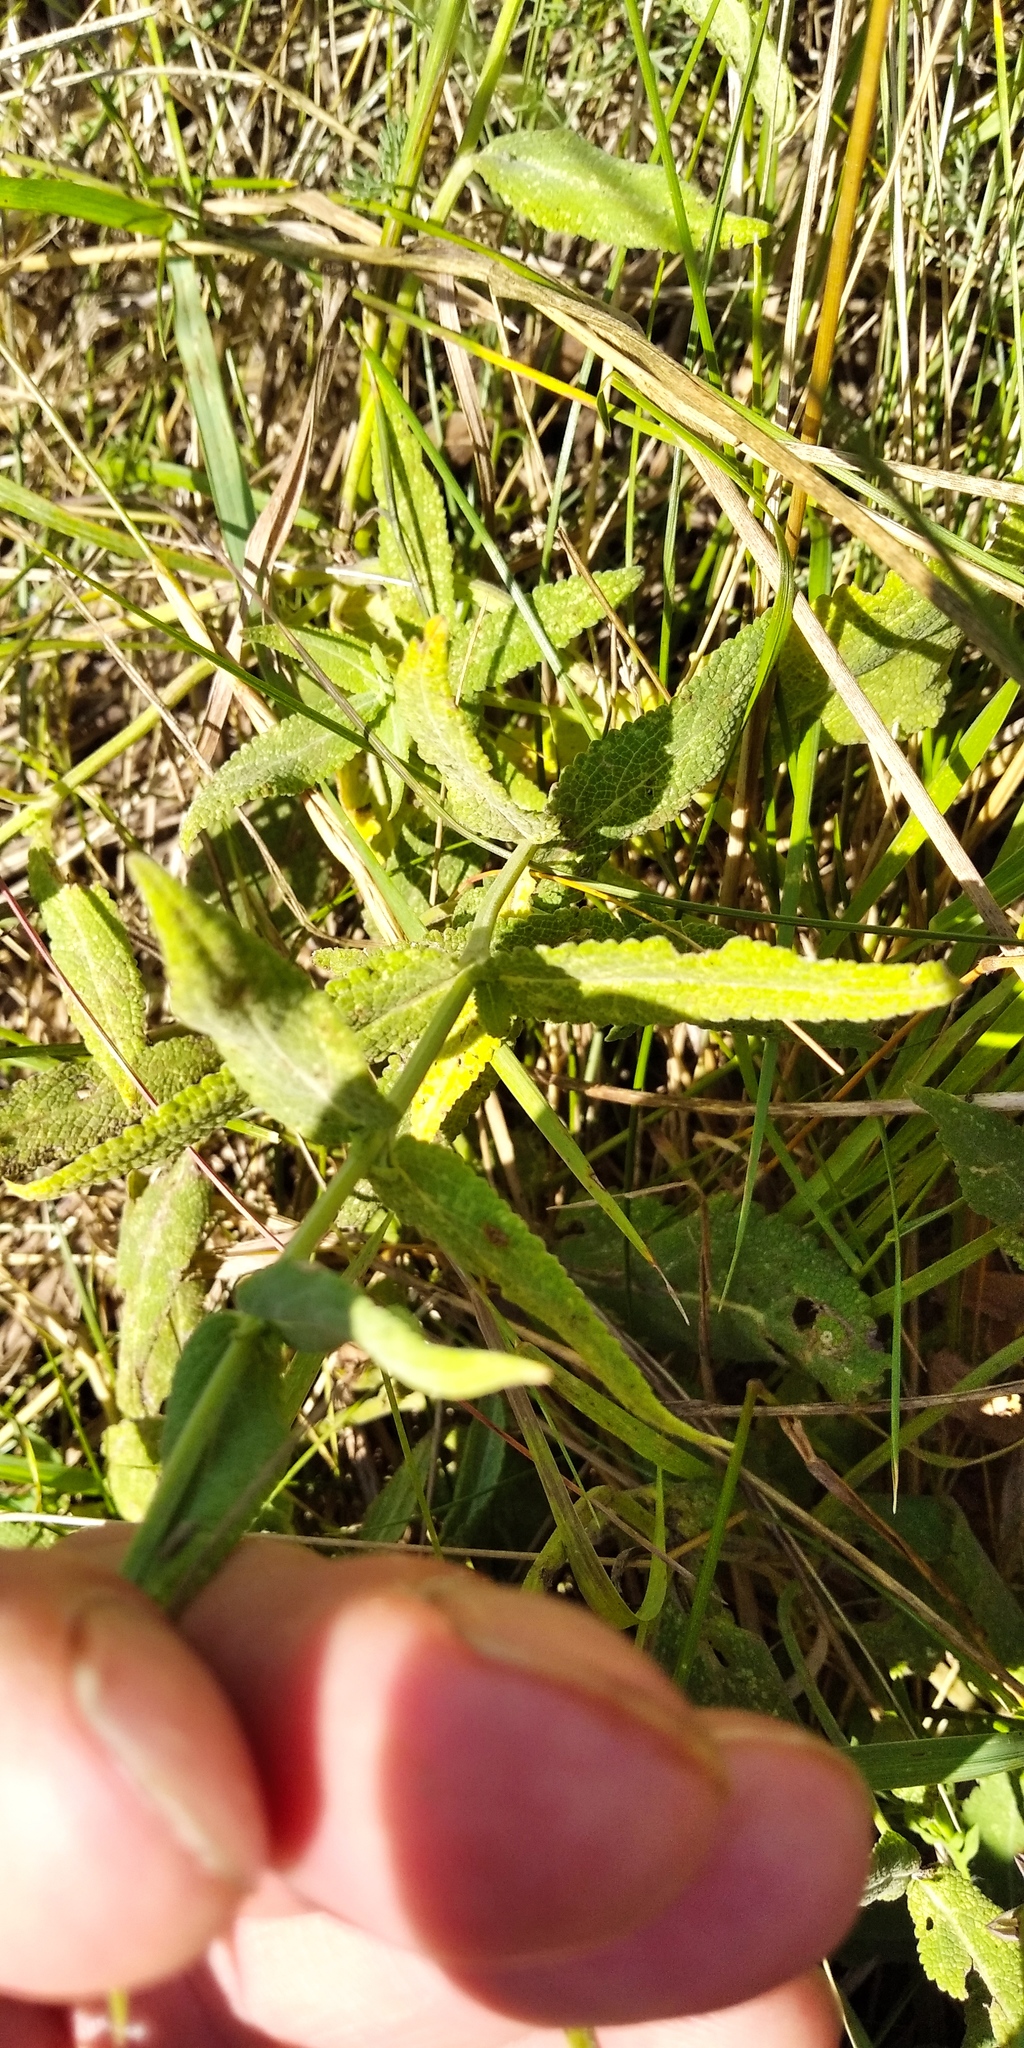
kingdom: Plantae
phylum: Tracheophyta
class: Magnoliopsida
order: Lamiales
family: Lamiaceae
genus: Salvia
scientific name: Salvia nemorosa
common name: Balkan clary
